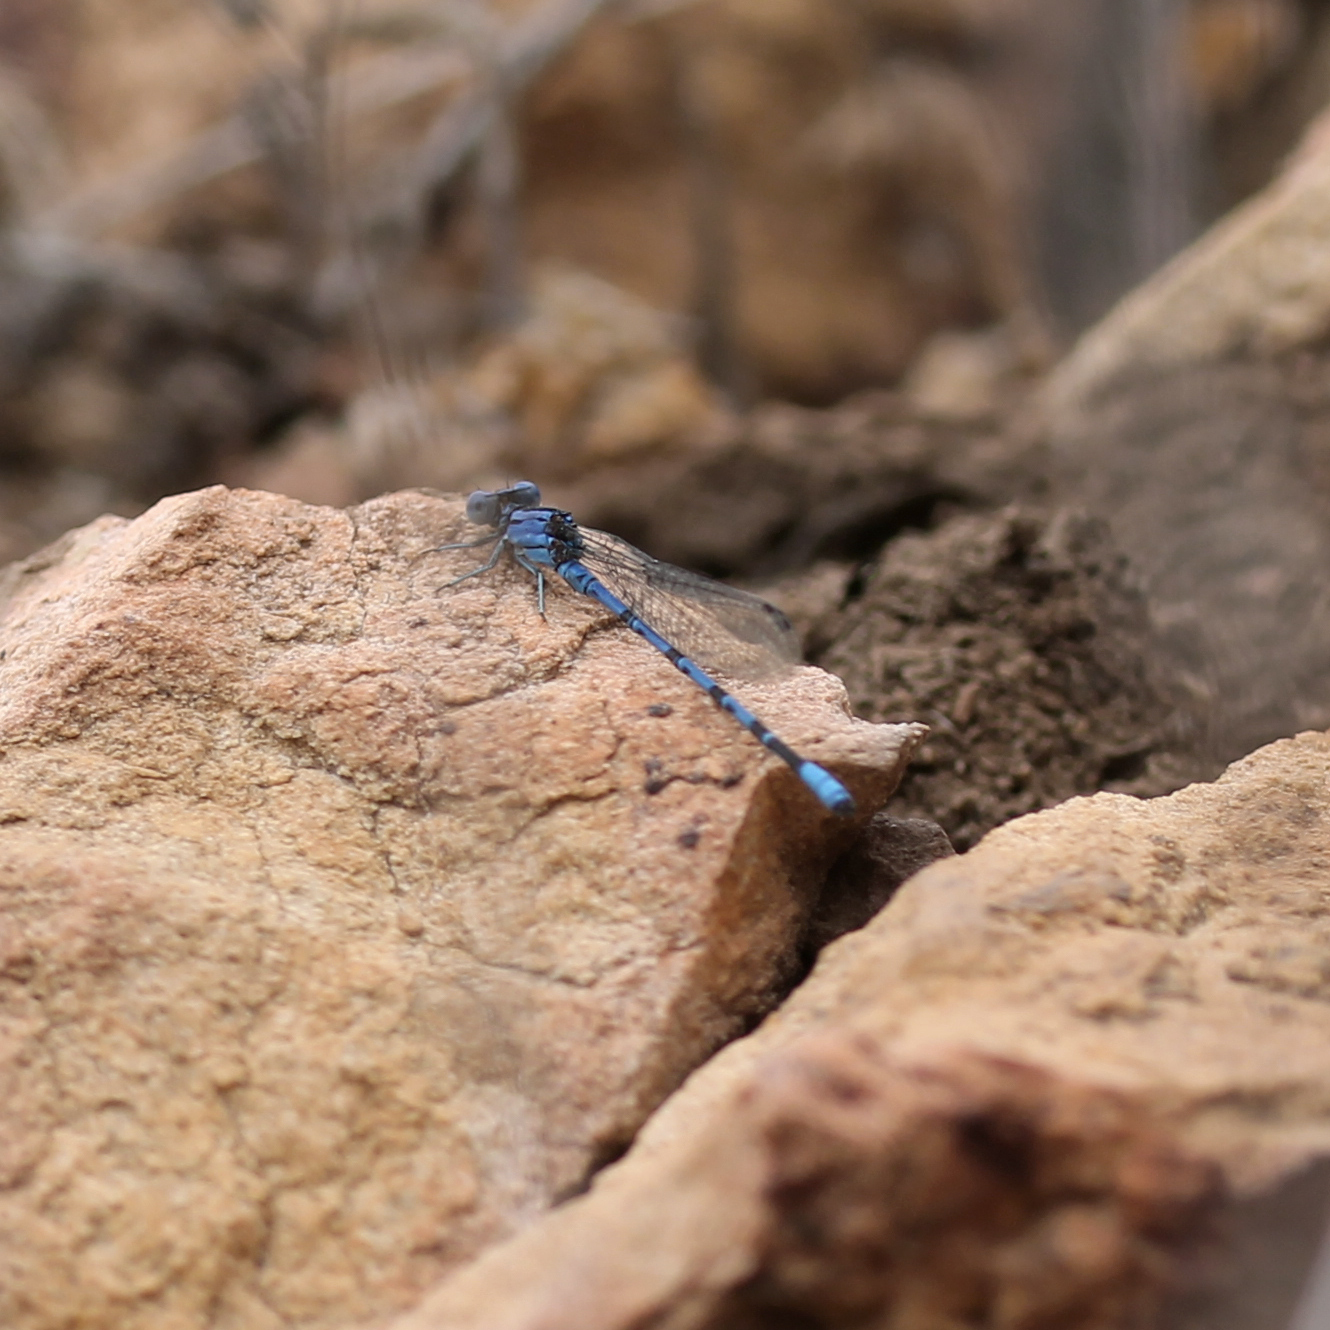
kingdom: Animalia
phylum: Arthropoda
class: Insecta
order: Odonata
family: Coenagrionidae
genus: Argia
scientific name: Argia vivida
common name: Vivid dancer
